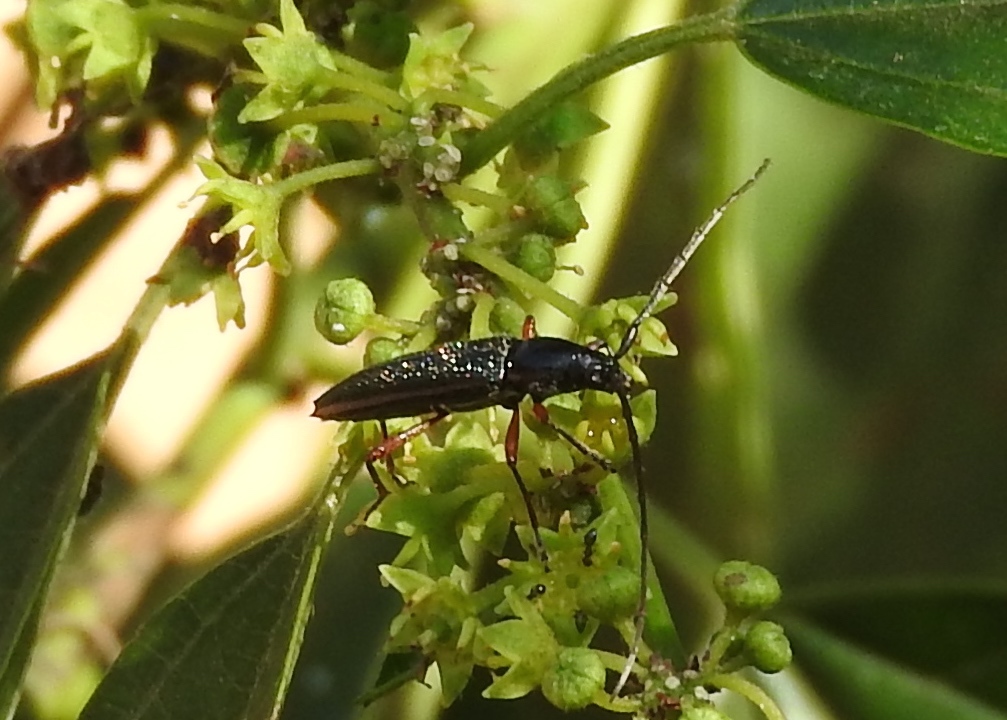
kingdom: Animalia
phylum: Arthropoda
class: Insecta
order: Coleoptera
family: Cerambycidae
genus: Stenosphenus
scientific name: Stenosphenus
